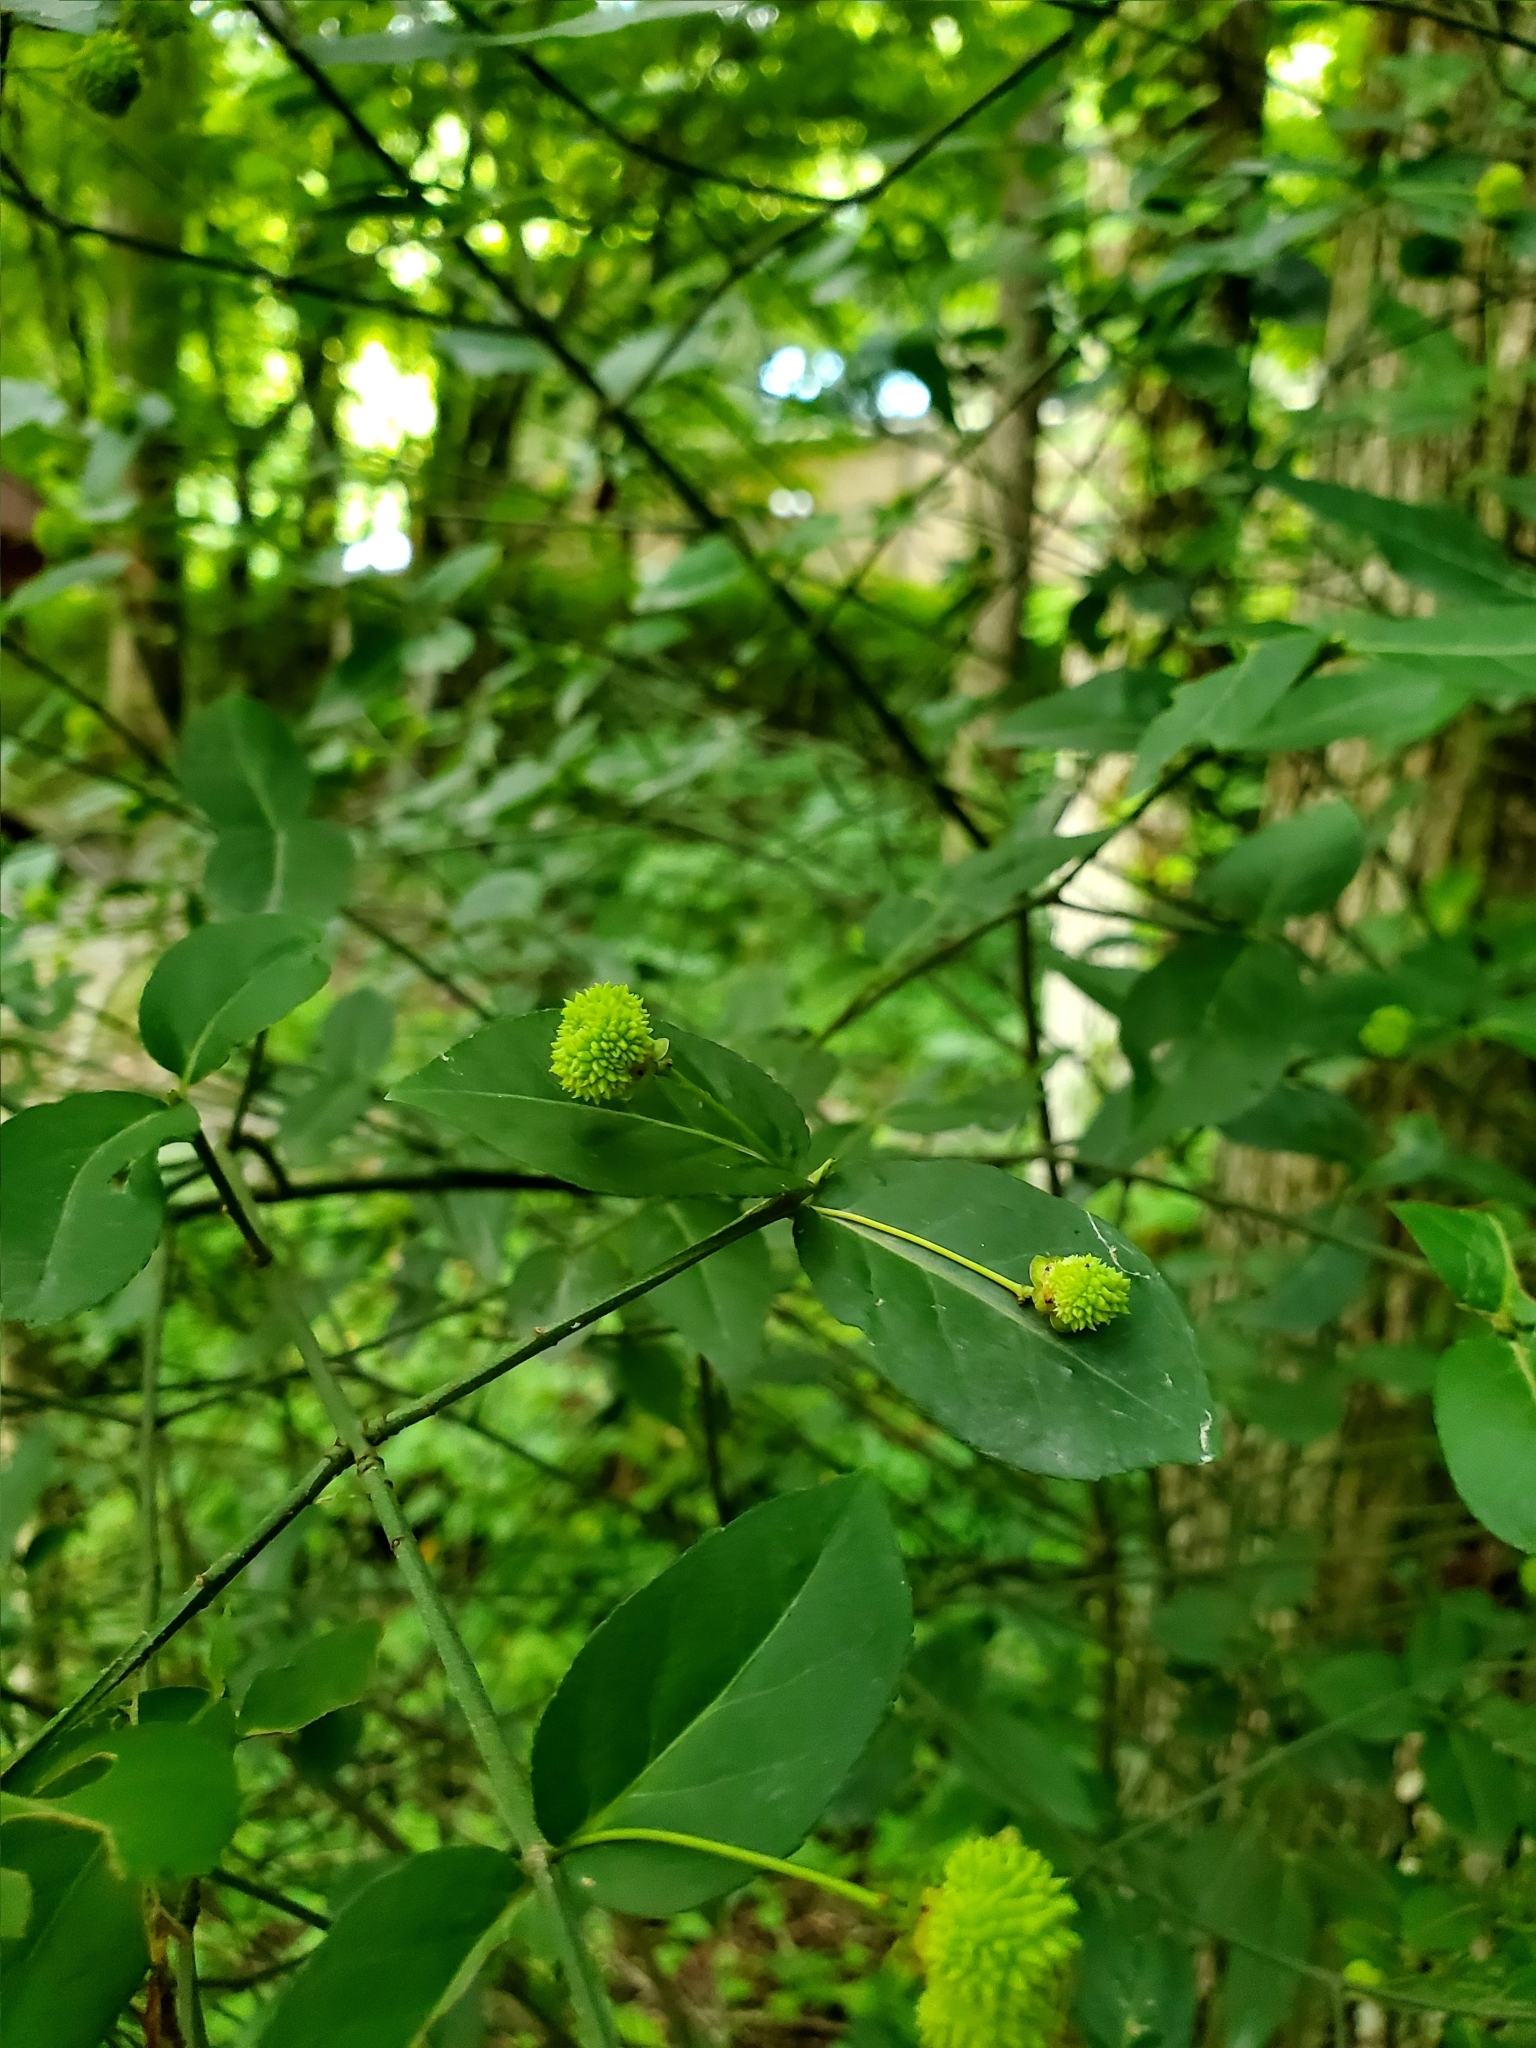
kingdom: Plantae
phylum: Tracheophyta
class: Magnoliopsida
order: Celastrales
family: Celastraceae
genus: Euonymus
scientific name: Euonymus americanus
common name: Bursting-heart
